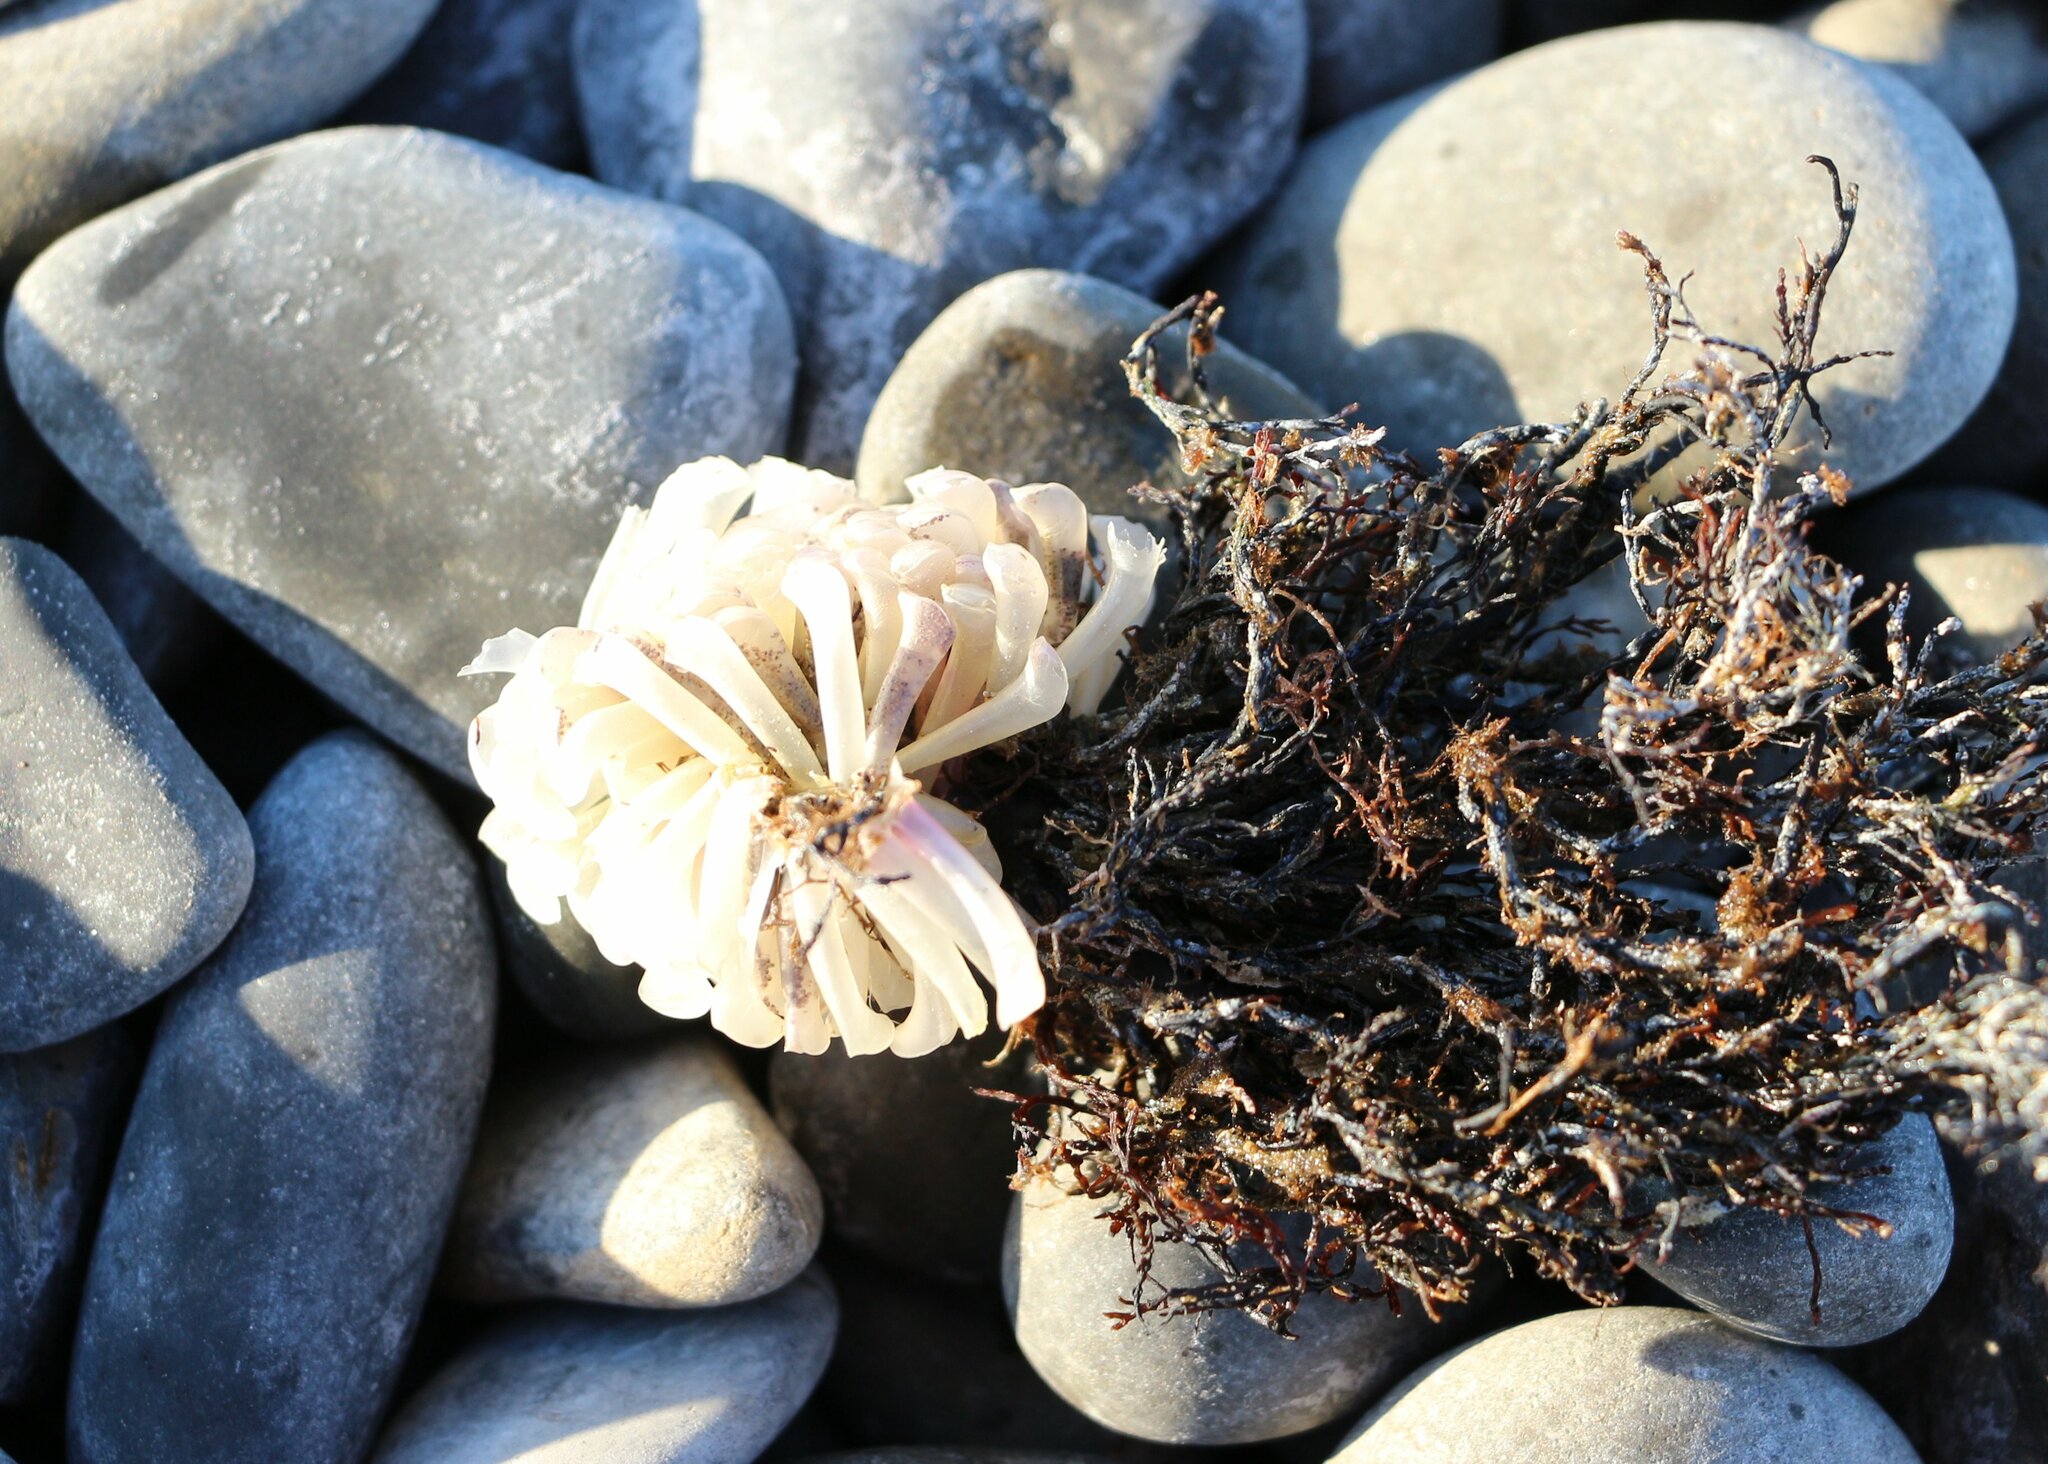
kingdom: Animalia
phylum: Mollusca
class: Gastropoda
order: Neogastropoda
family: Muricidae
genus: Rapana
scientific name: Rapana venosa
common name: Veined rapa whelk
